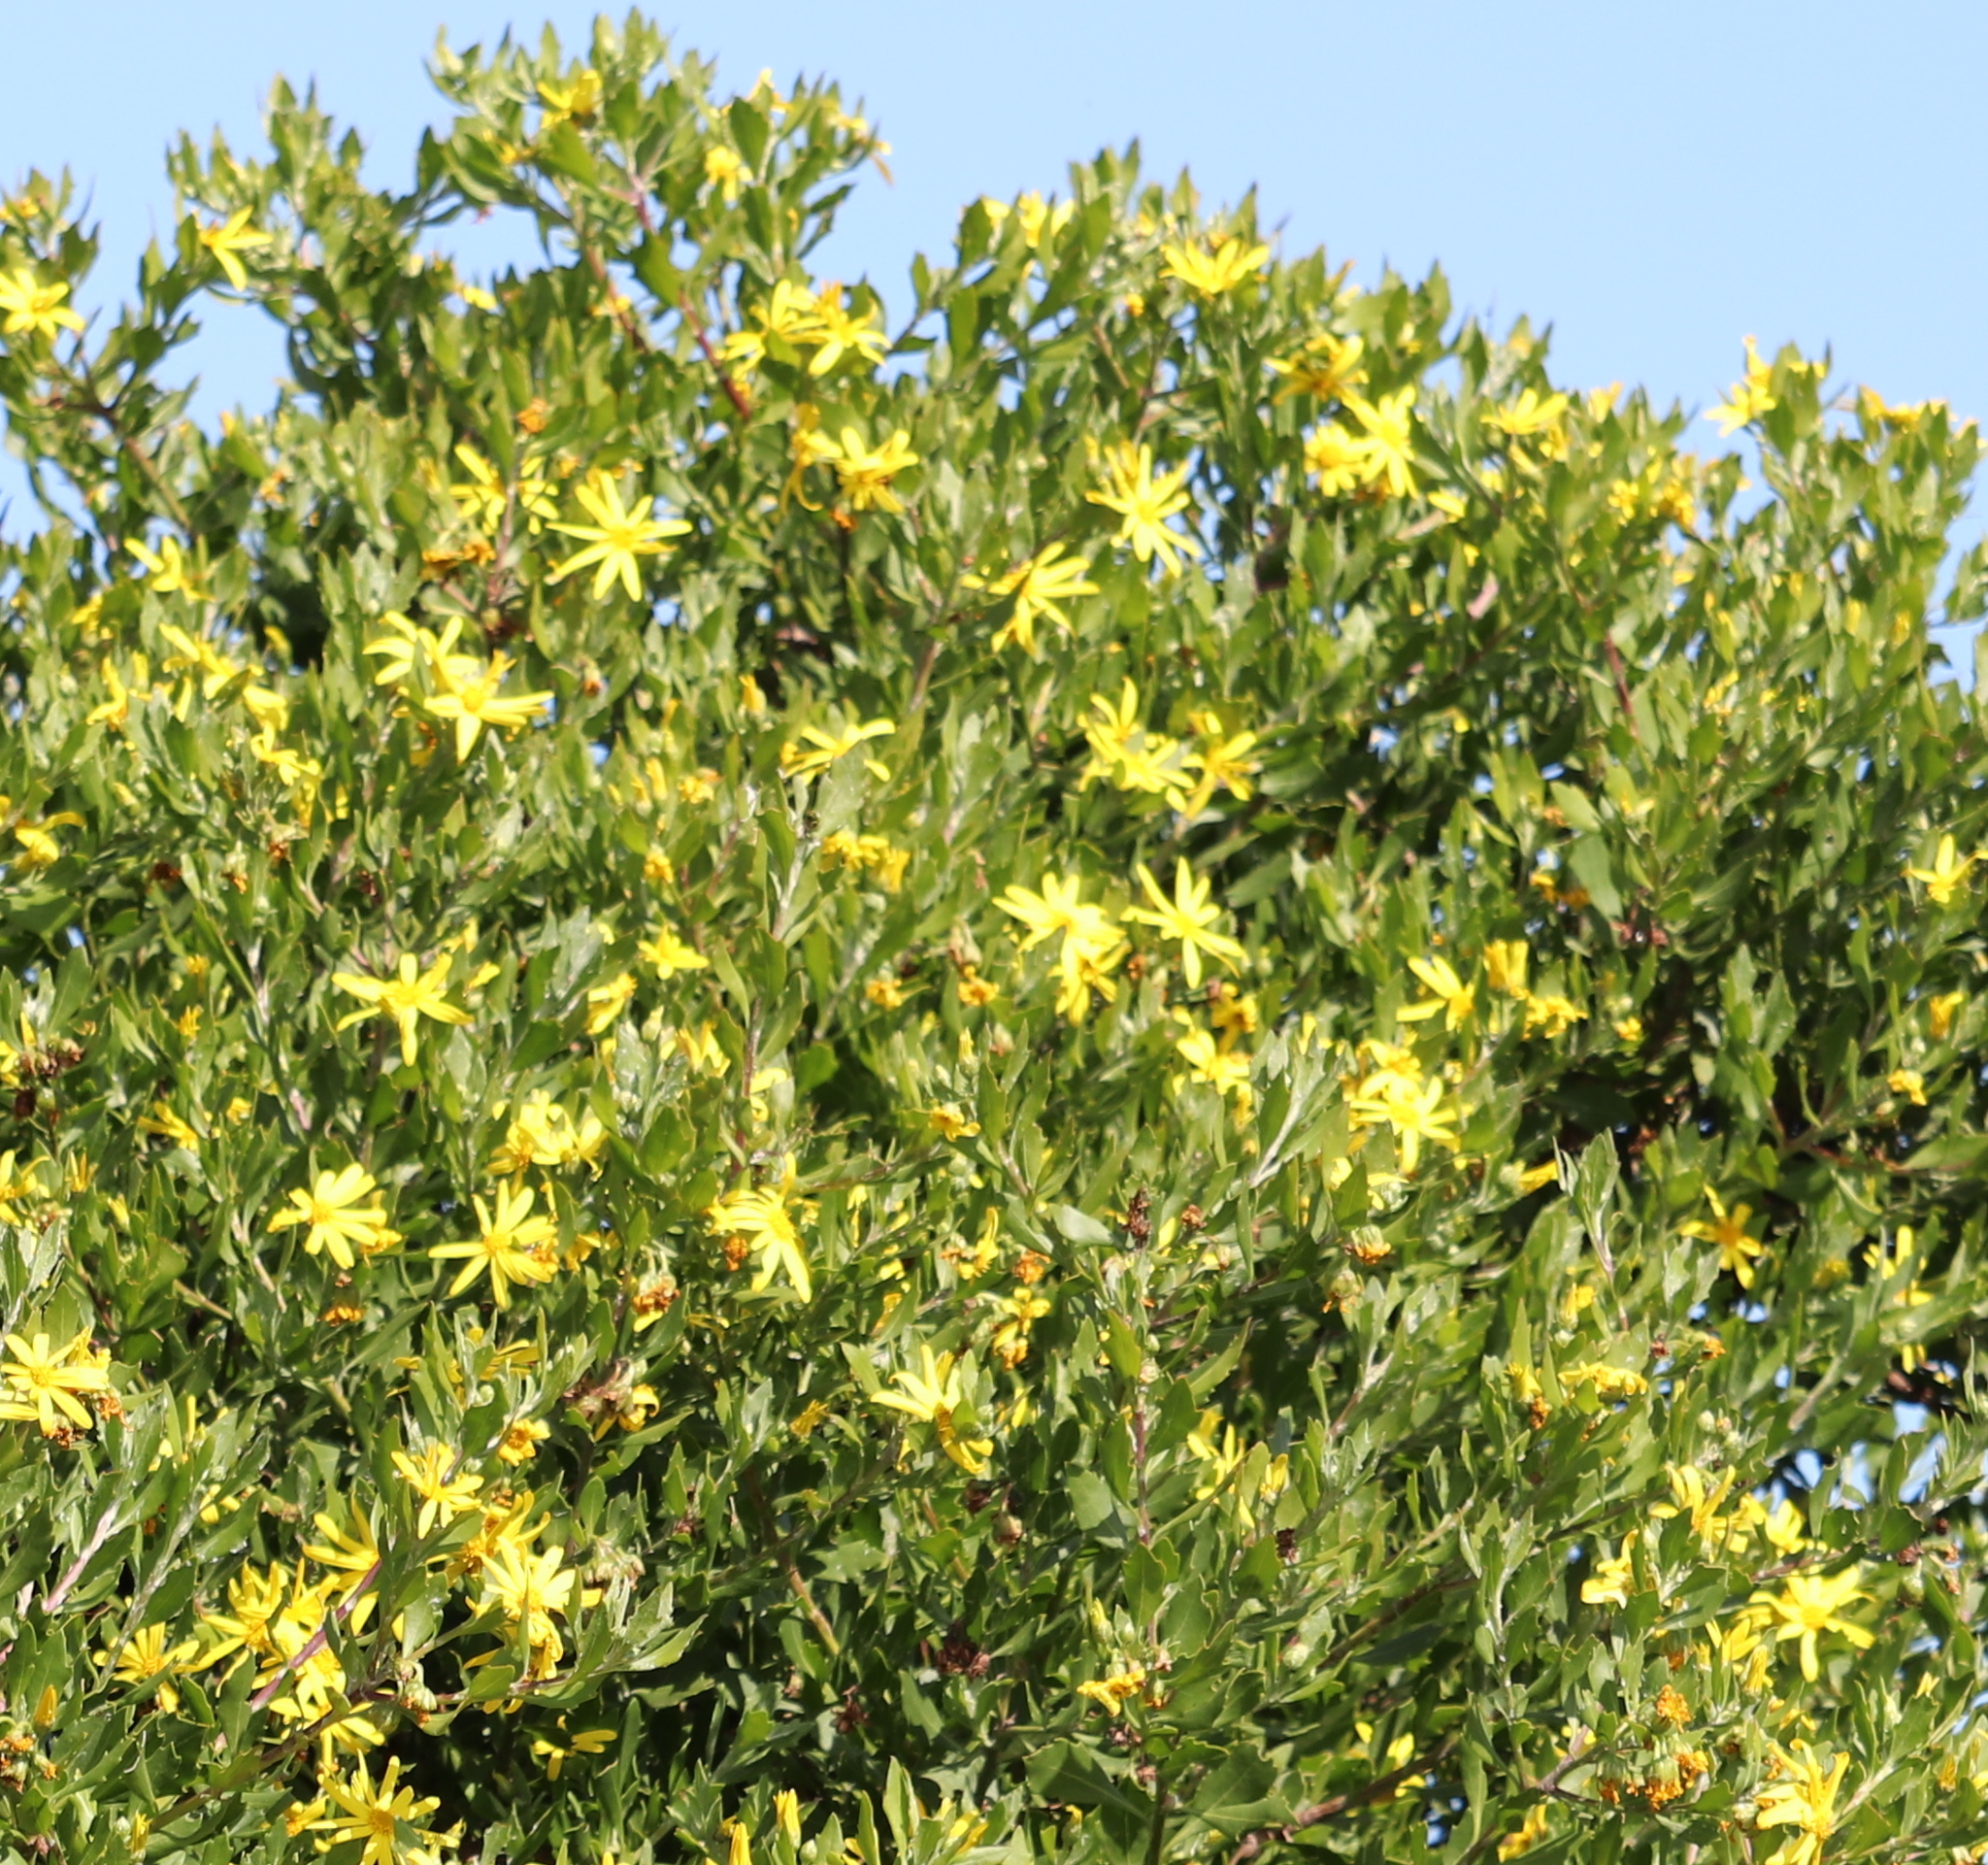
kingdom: Plantae
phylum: Tracheophyta
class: Magnoliopsida
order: Asterales
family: Asteraceae
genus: Osteospermum
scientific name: Osteospermum moniliferum
